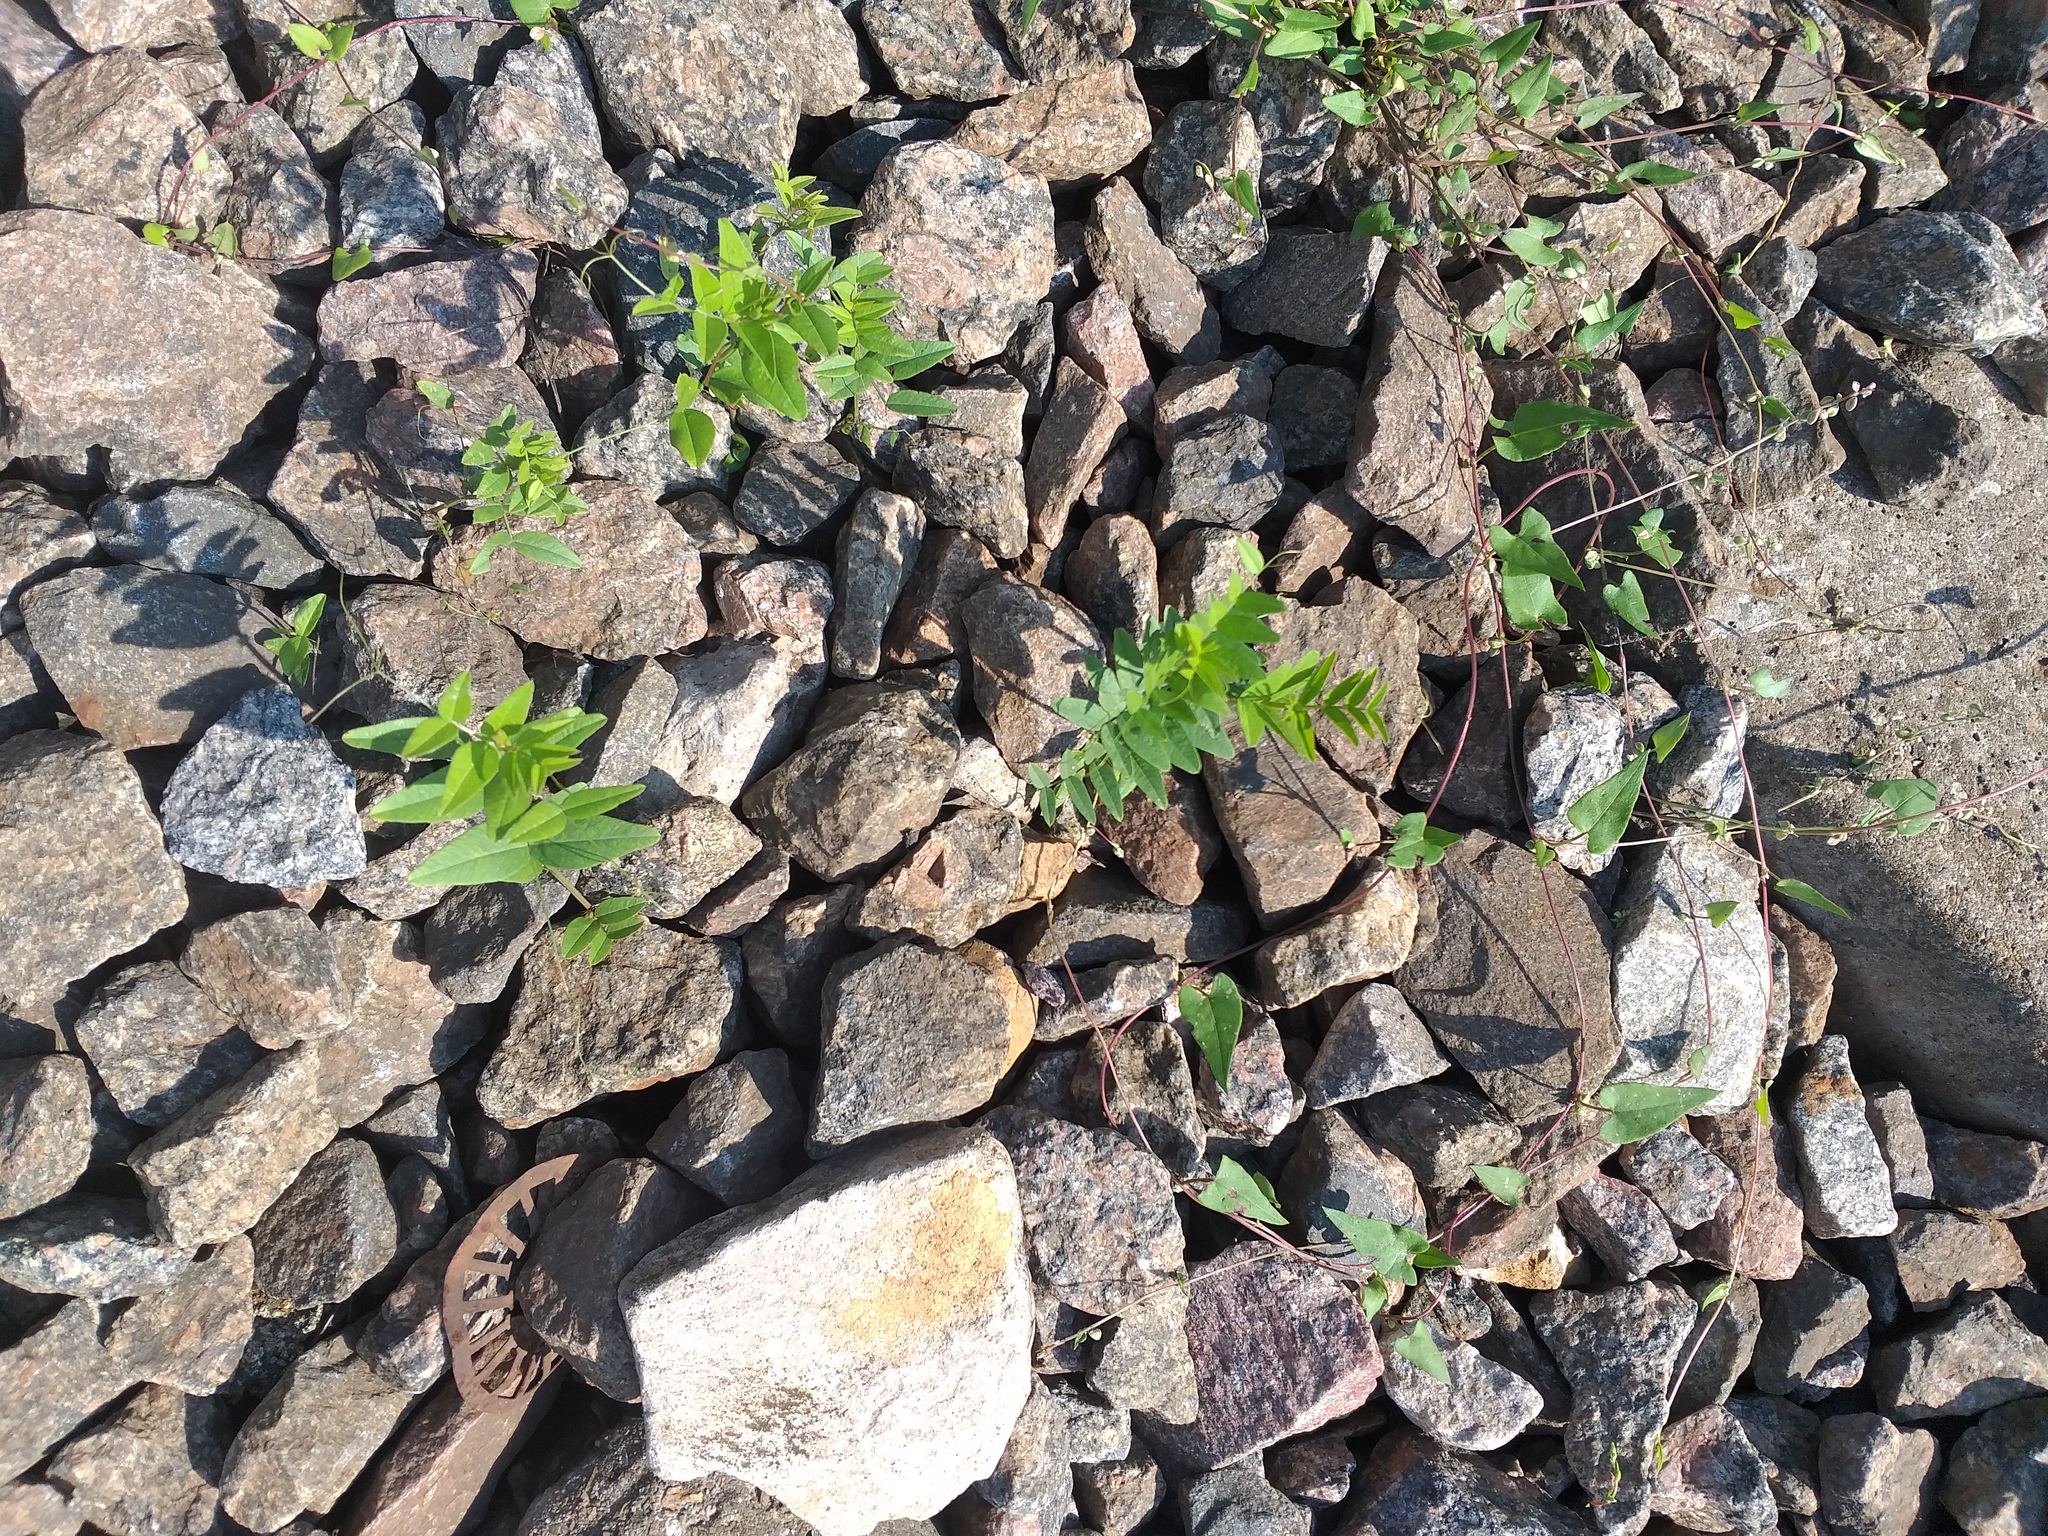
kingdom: Plantae
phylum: Tracheophyta
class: Magnoliopsida
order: Fabales
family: Fabaceae
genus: Vicia
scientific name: Vicia sepium
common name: Bush vetch
